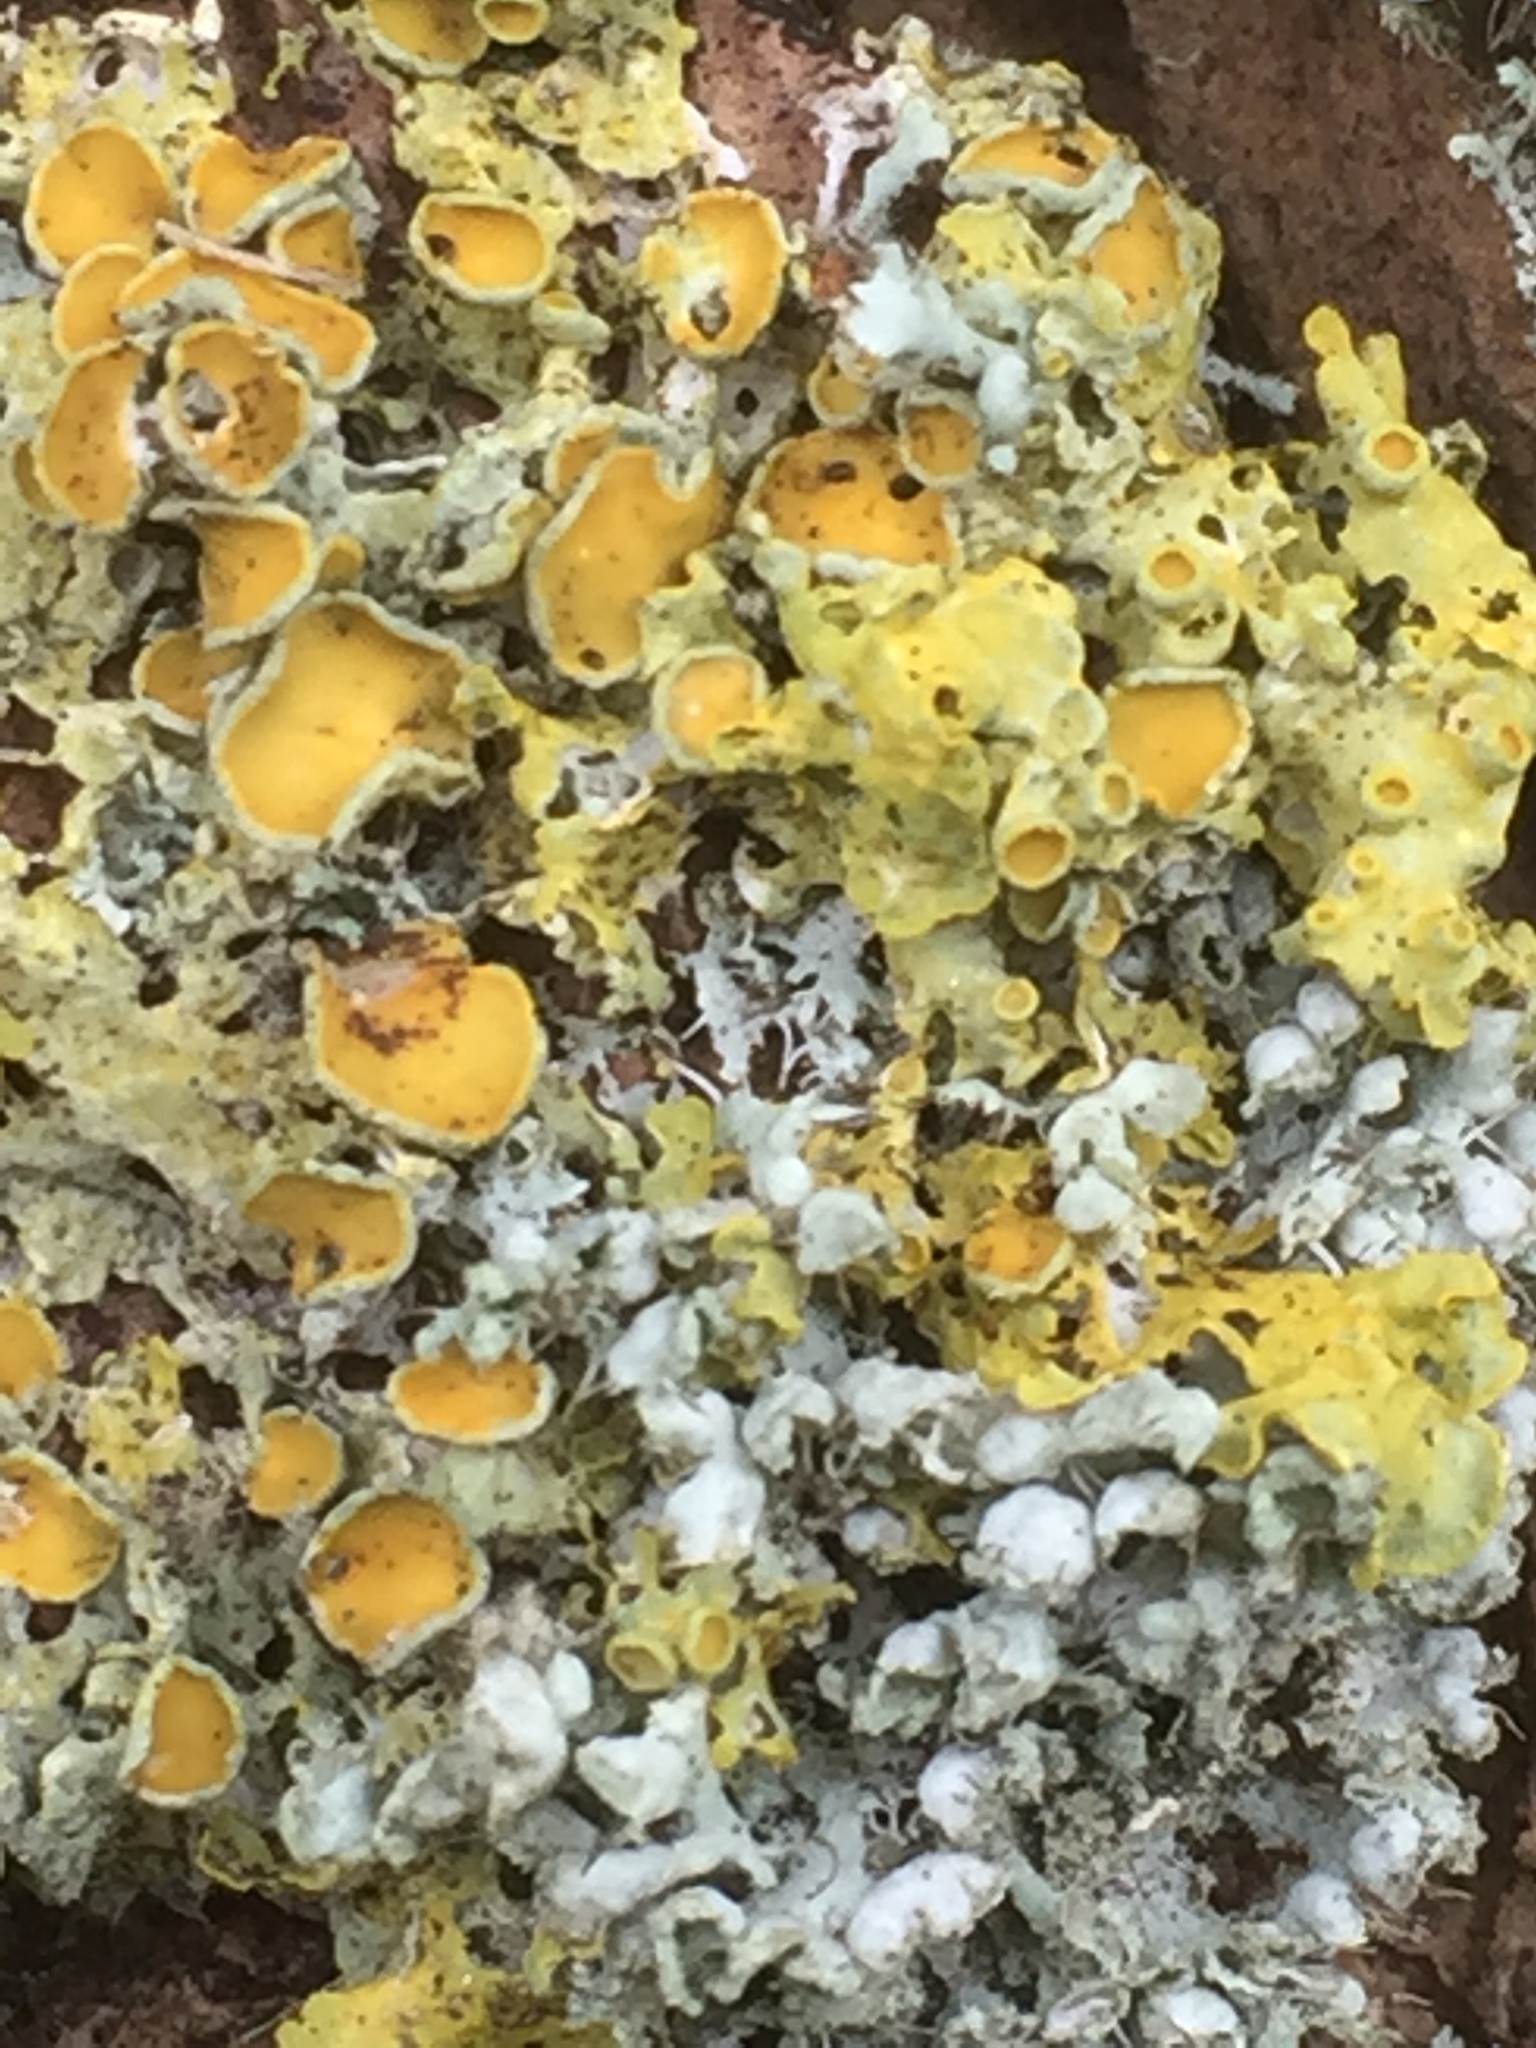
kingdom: Fungi
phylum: Ascomycota
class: Lecanoromycetes
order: Teloschistales
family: Teloschistaceae
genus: Xanthoria
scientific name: Xanthoria parietina
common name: Common orange lichen
